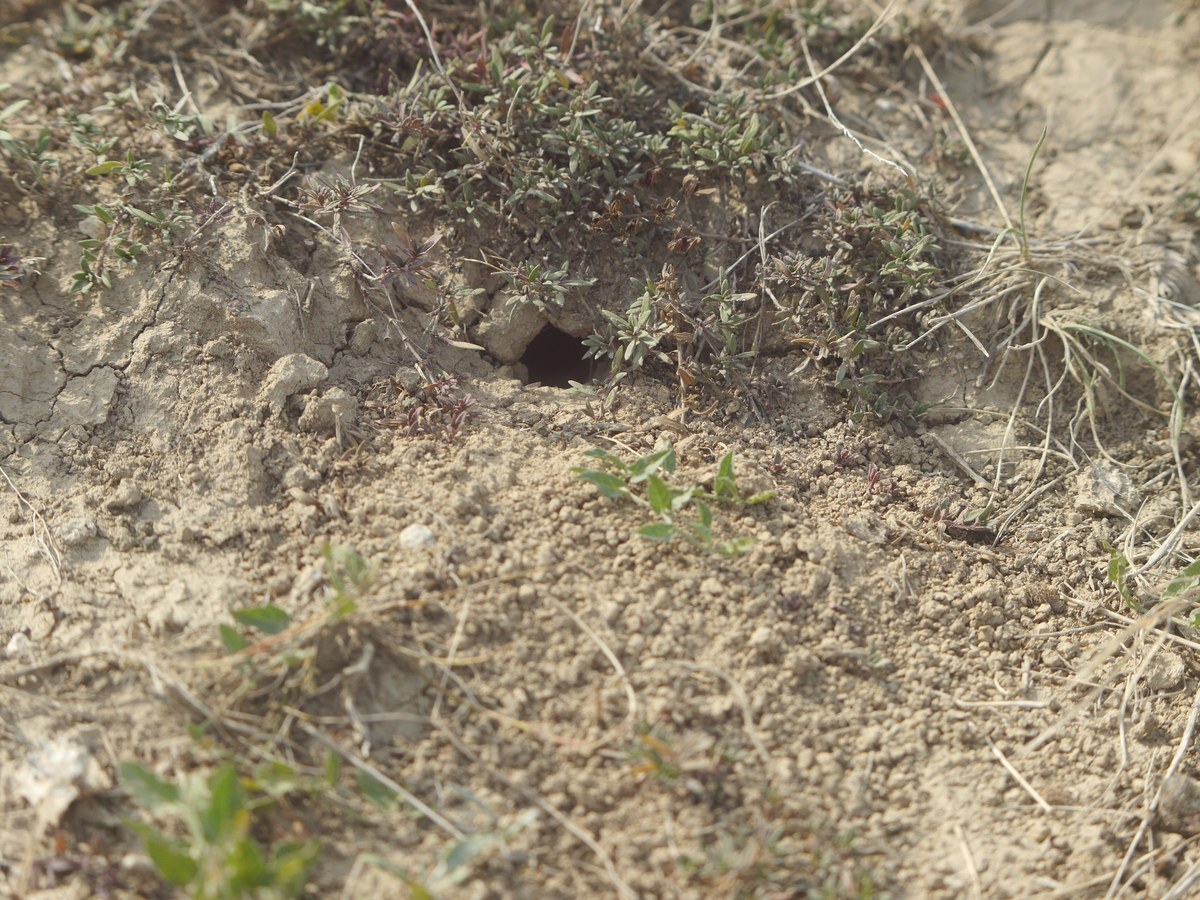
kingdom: Animalia
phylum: Arthropoda
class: Insecta
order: Hymenoptera
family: Pompilidae
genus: Cryptocheilus
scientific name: Cryptocheilus rubellus
